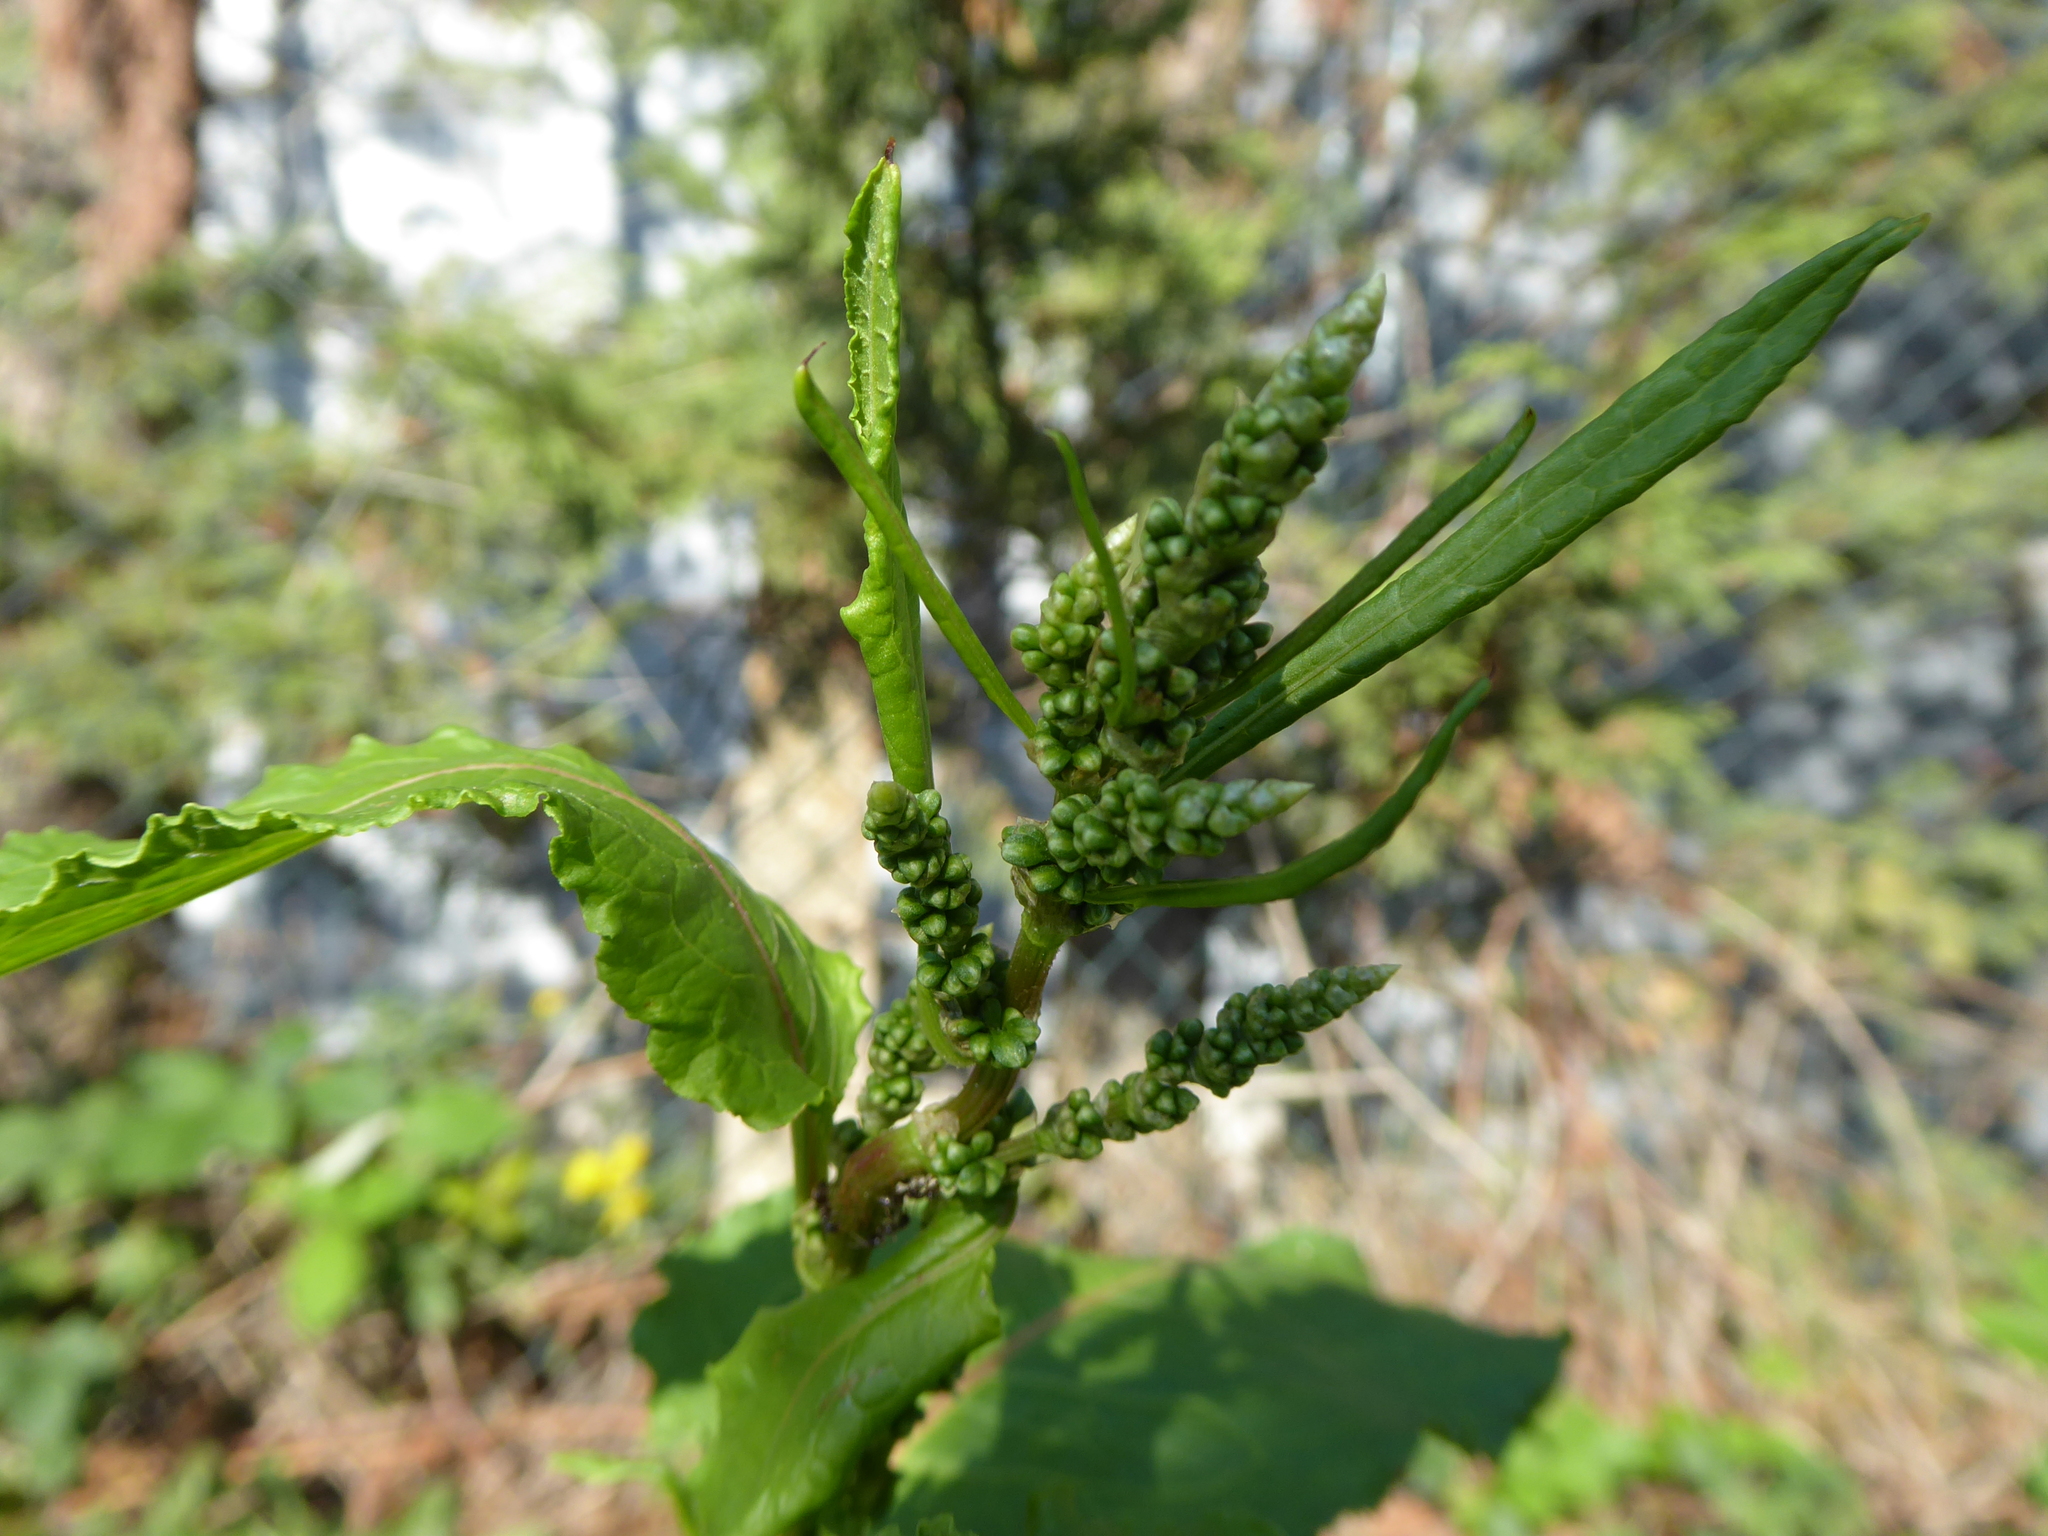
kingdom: Plantae
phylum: Tracheophyta
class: Magnoliopsida
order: Caryophyllales
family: Polygonaceae
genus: Rumex
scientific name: Rumex obtusifolius
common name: Bitter dock
